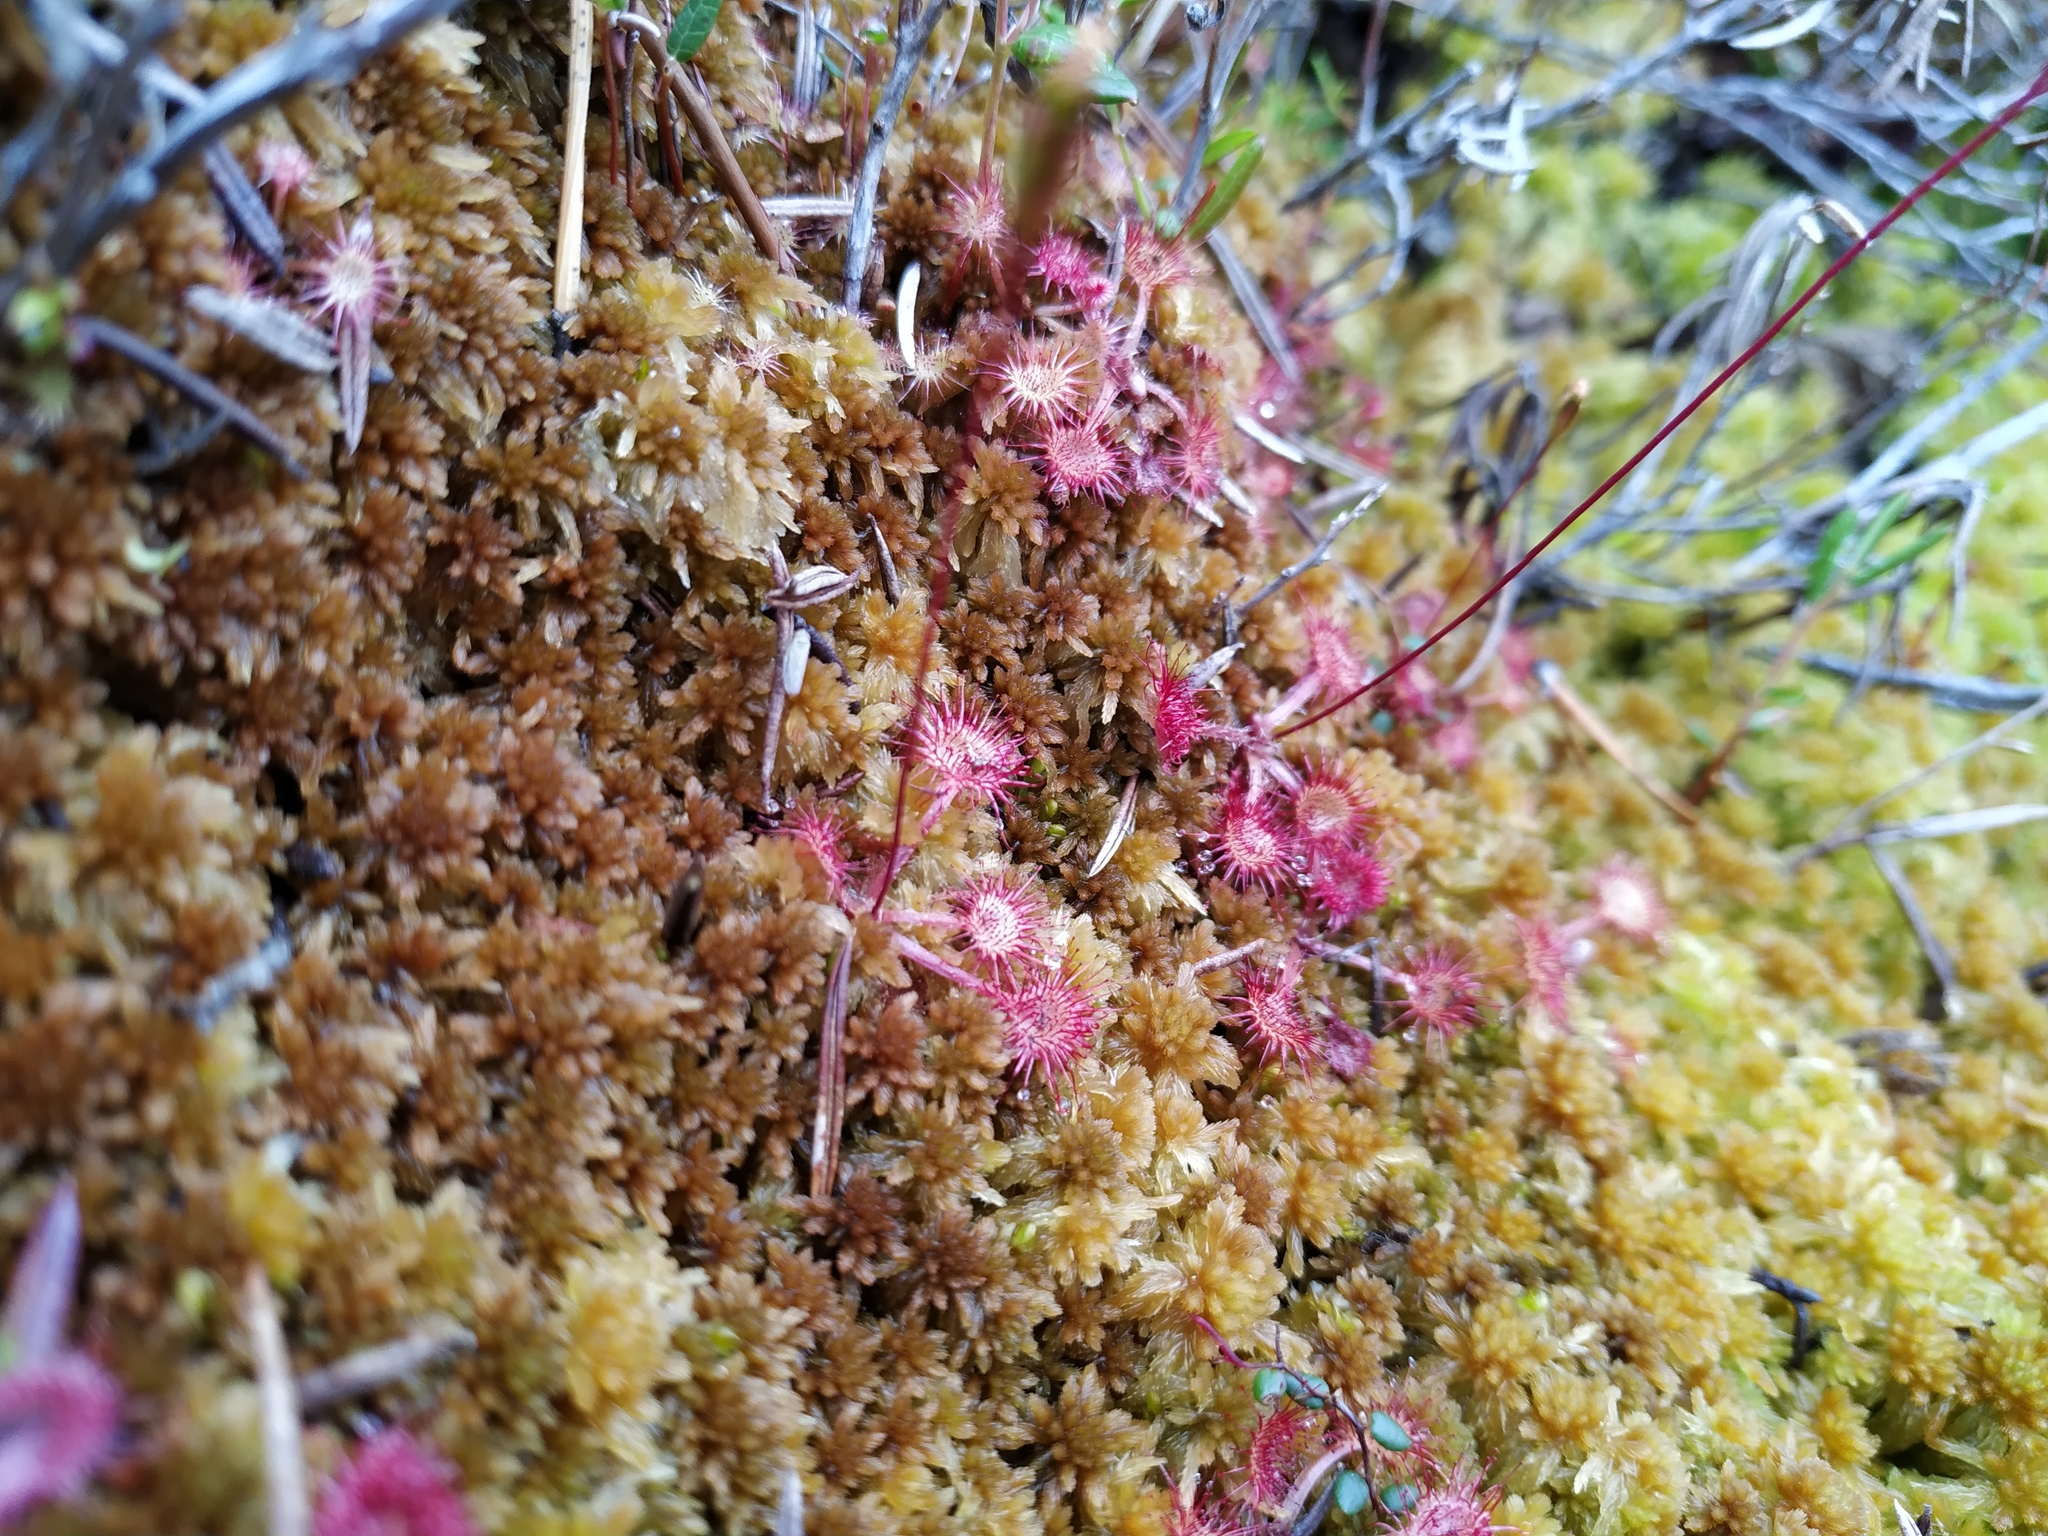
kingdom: Plantae
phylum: Tracheophyta
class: Magnoliopsida
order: Caryophyllales
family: Droseraceae
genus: Drosera
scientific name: Drosera rotundifolia
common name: Round-leaved sundew
